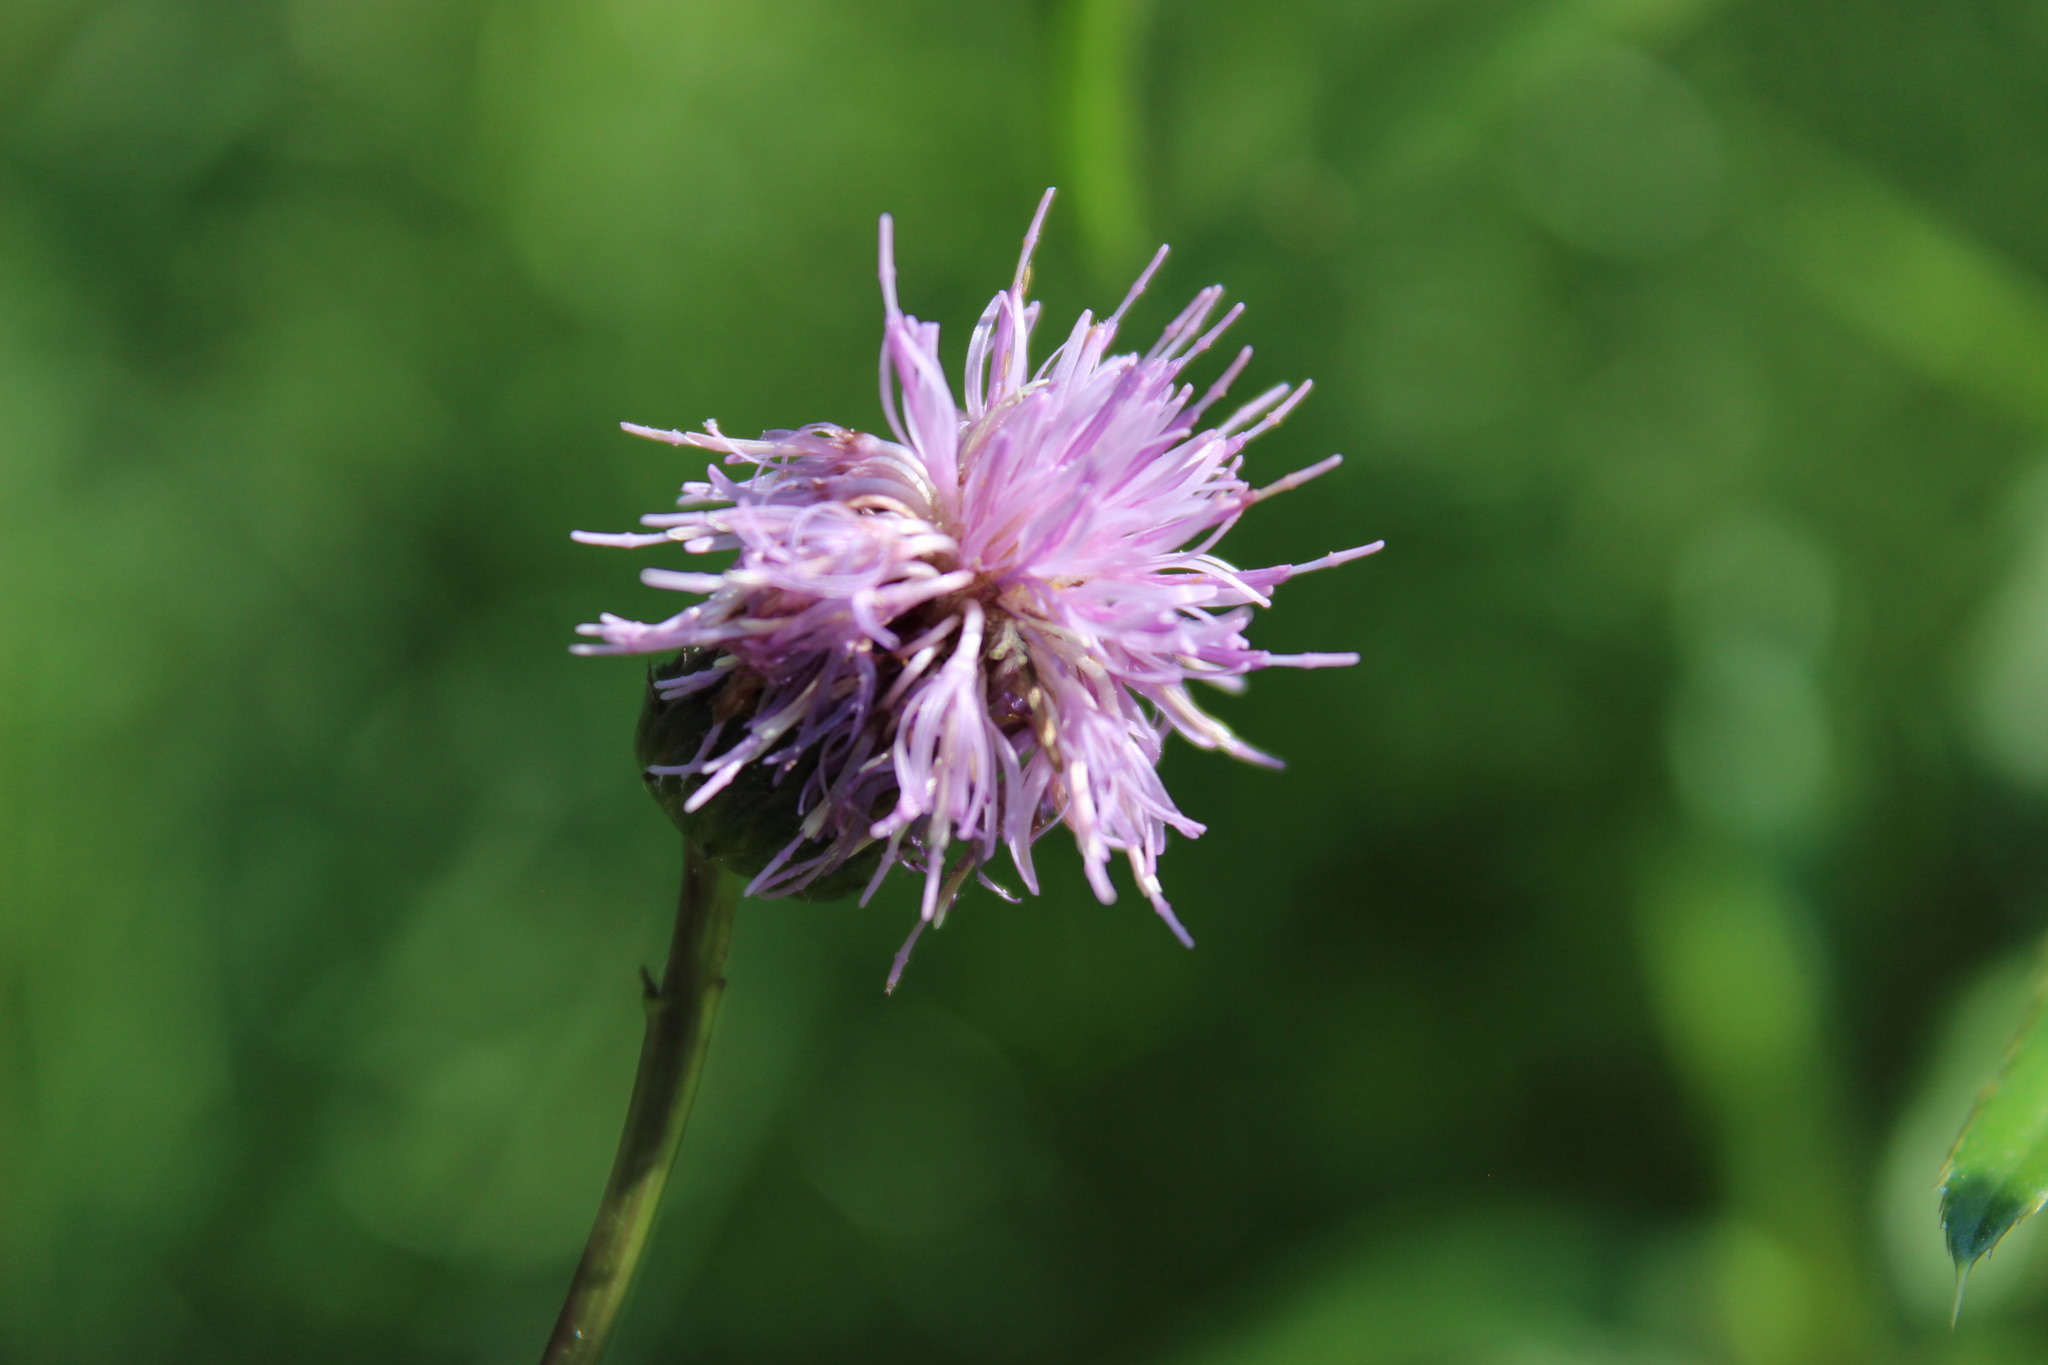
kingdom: Plantae
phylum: Tracheophyta
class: Magnoliopsida
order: Asterales
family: Asteraceae
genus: Cirsium
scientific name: Cirsium serratuloides
